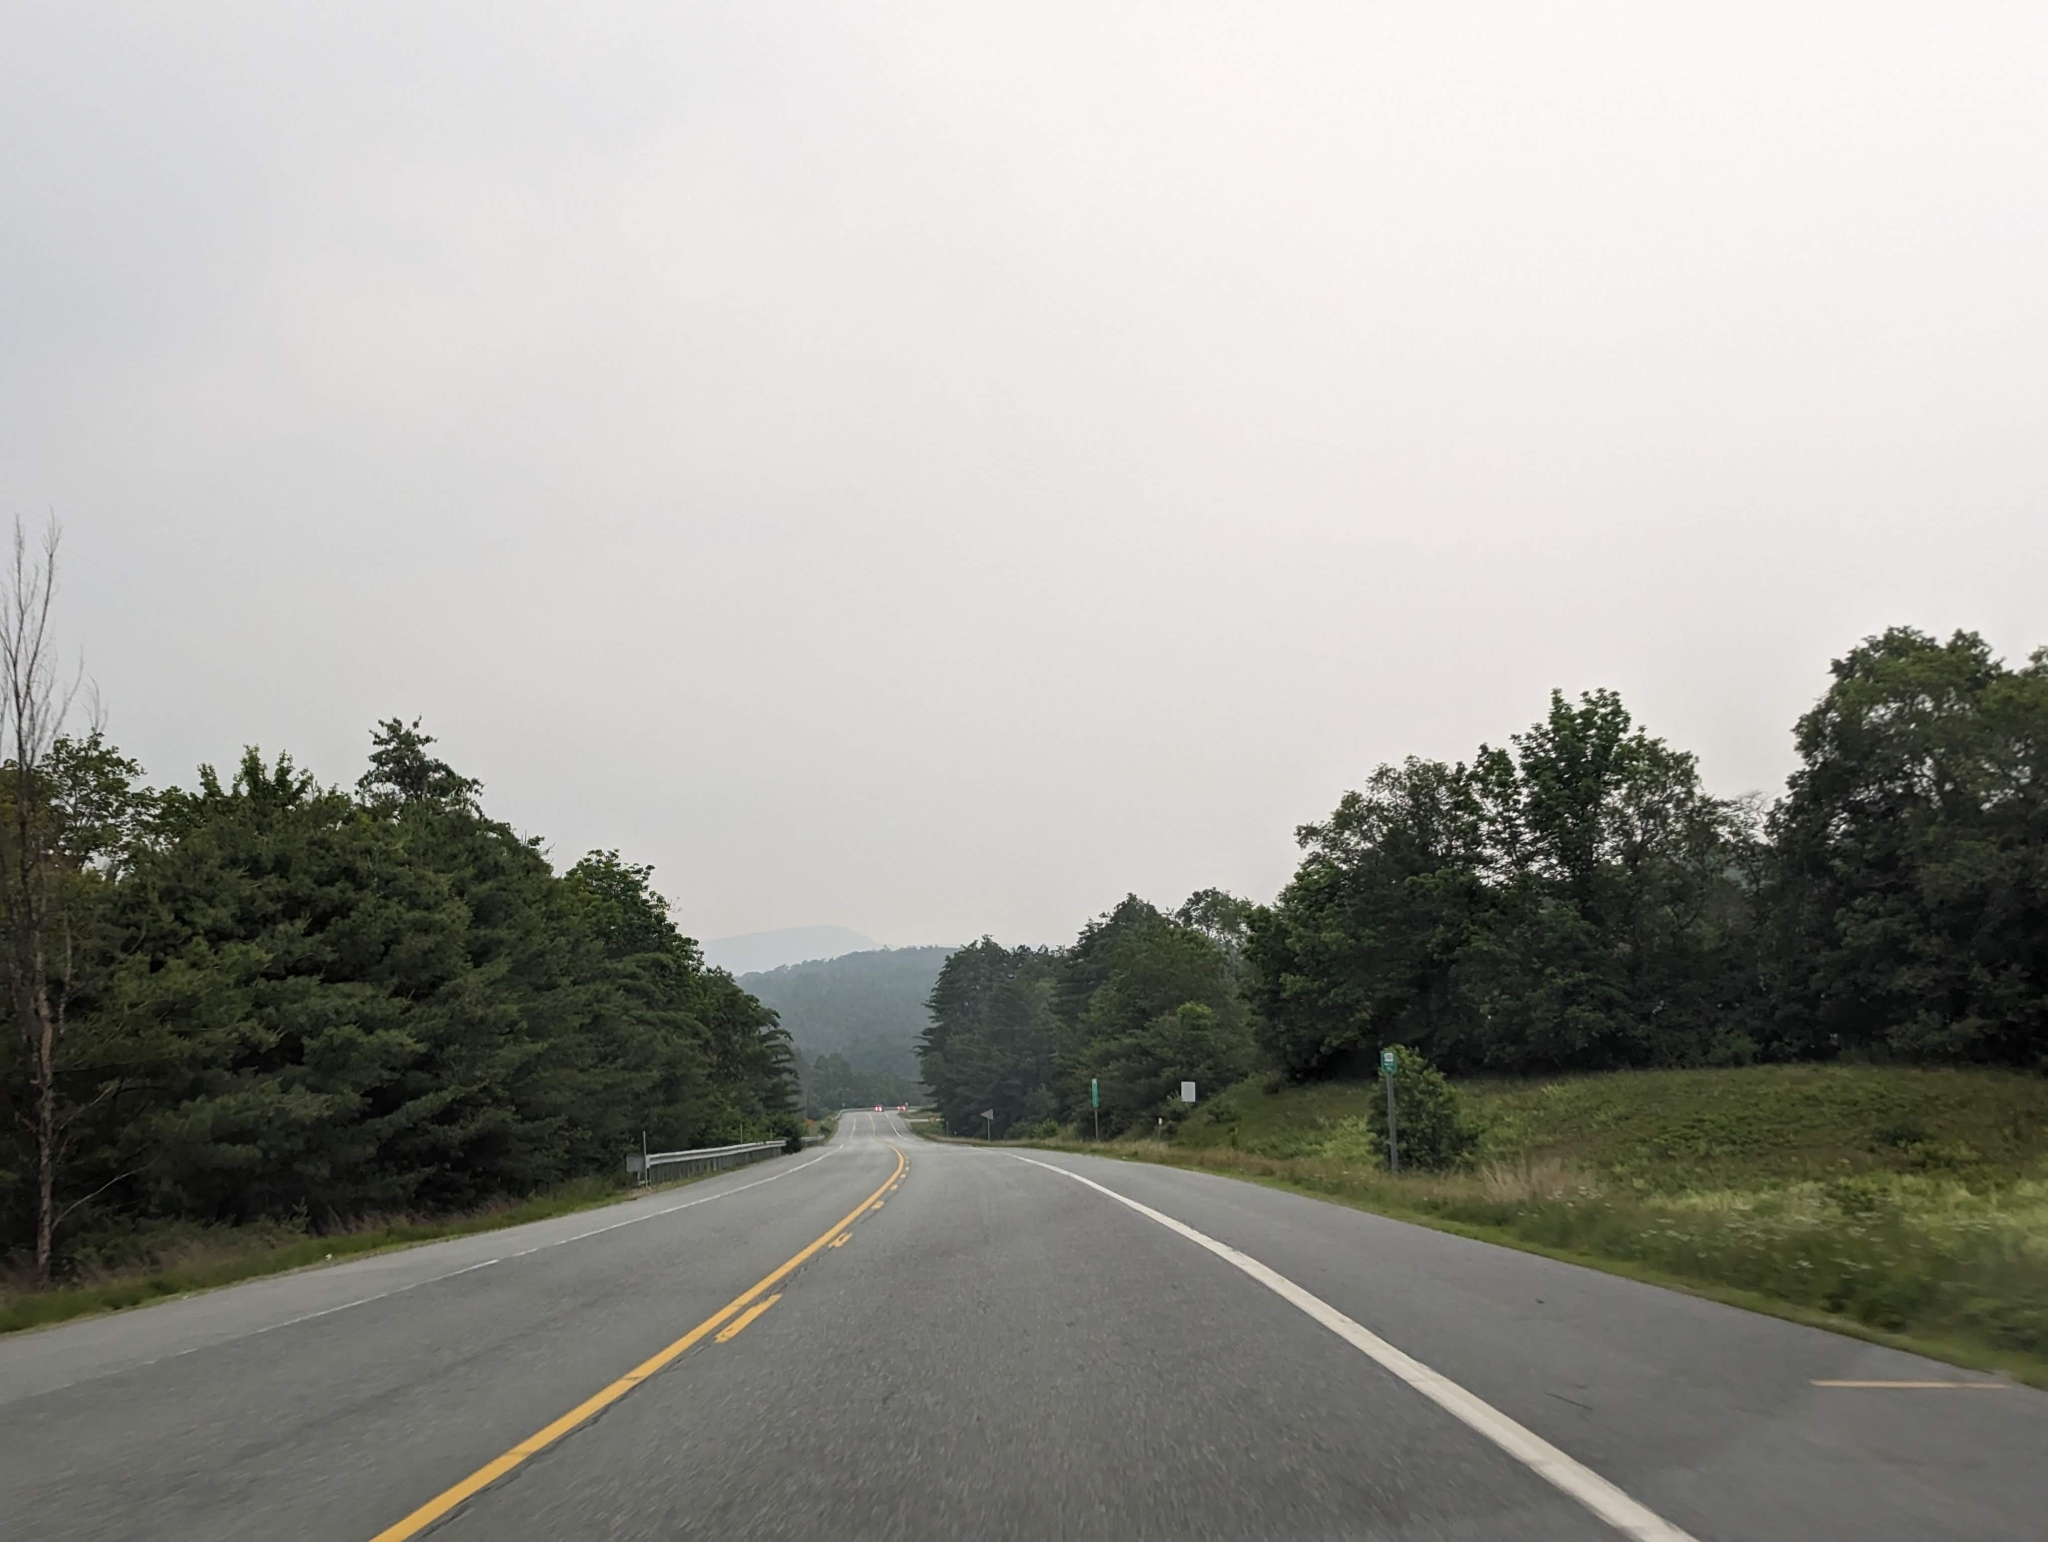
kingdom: Plantae
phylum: Tracheophyta
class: Pinopsida
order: Pinales
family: Pinaceae
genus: Pinus
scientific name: Pinus strobus
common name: Weymouth pine
